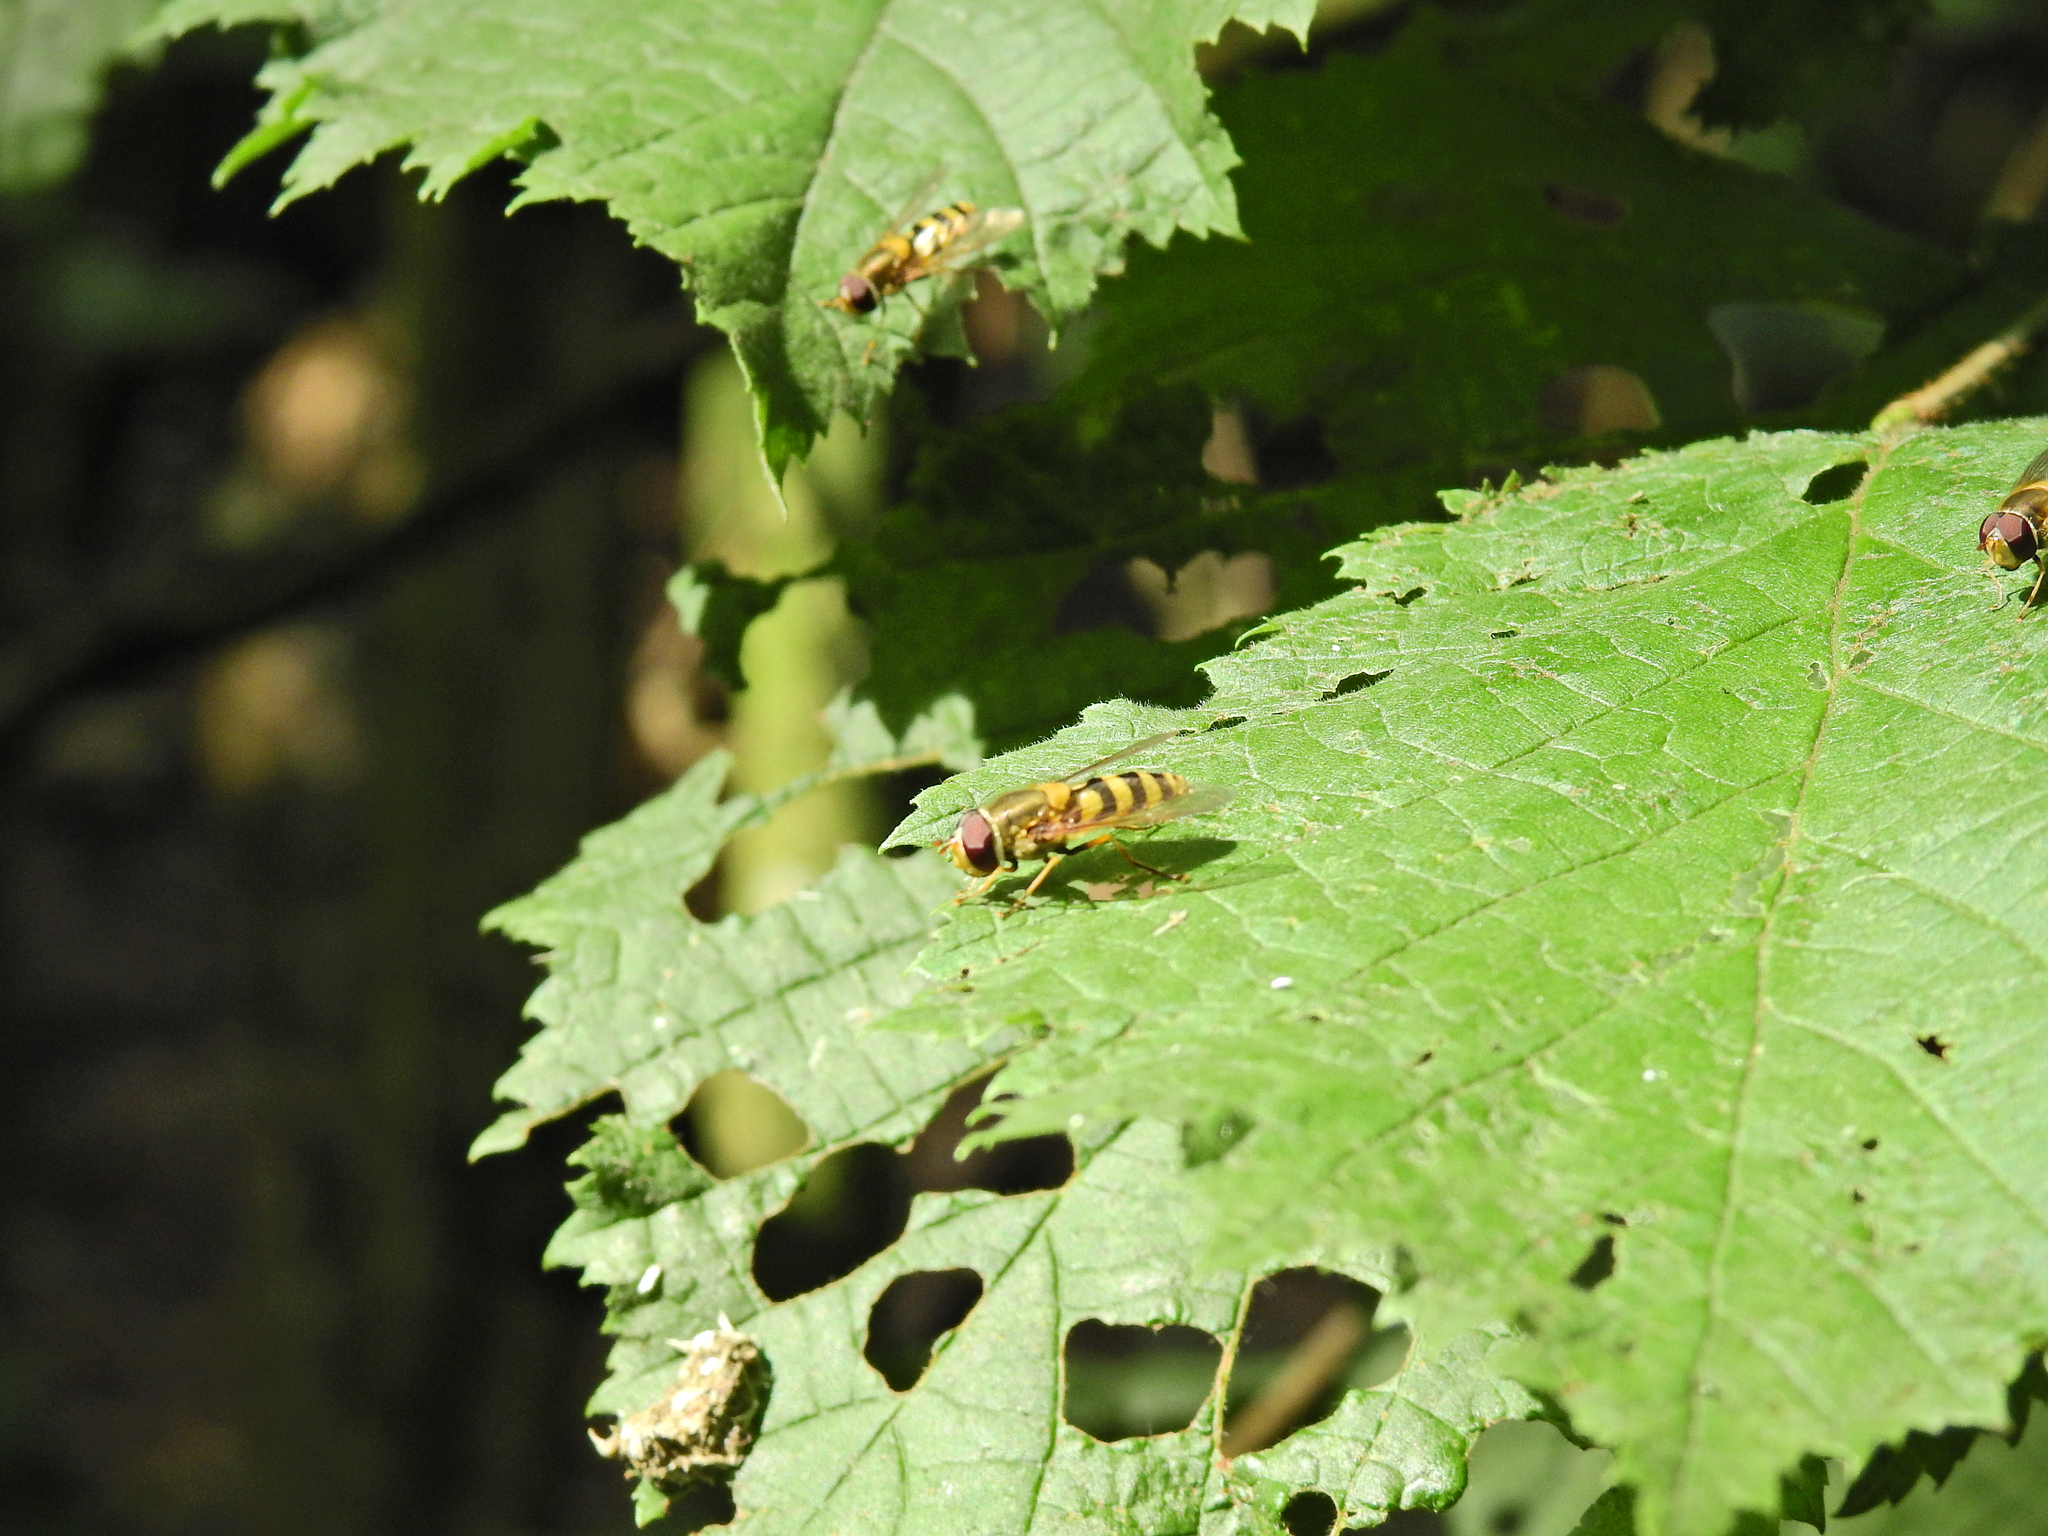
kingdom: Animalia
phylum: Arthropoda
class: Insecta
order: Diptera
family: Syrphidae
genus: Syrphus
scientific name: Syrphus
